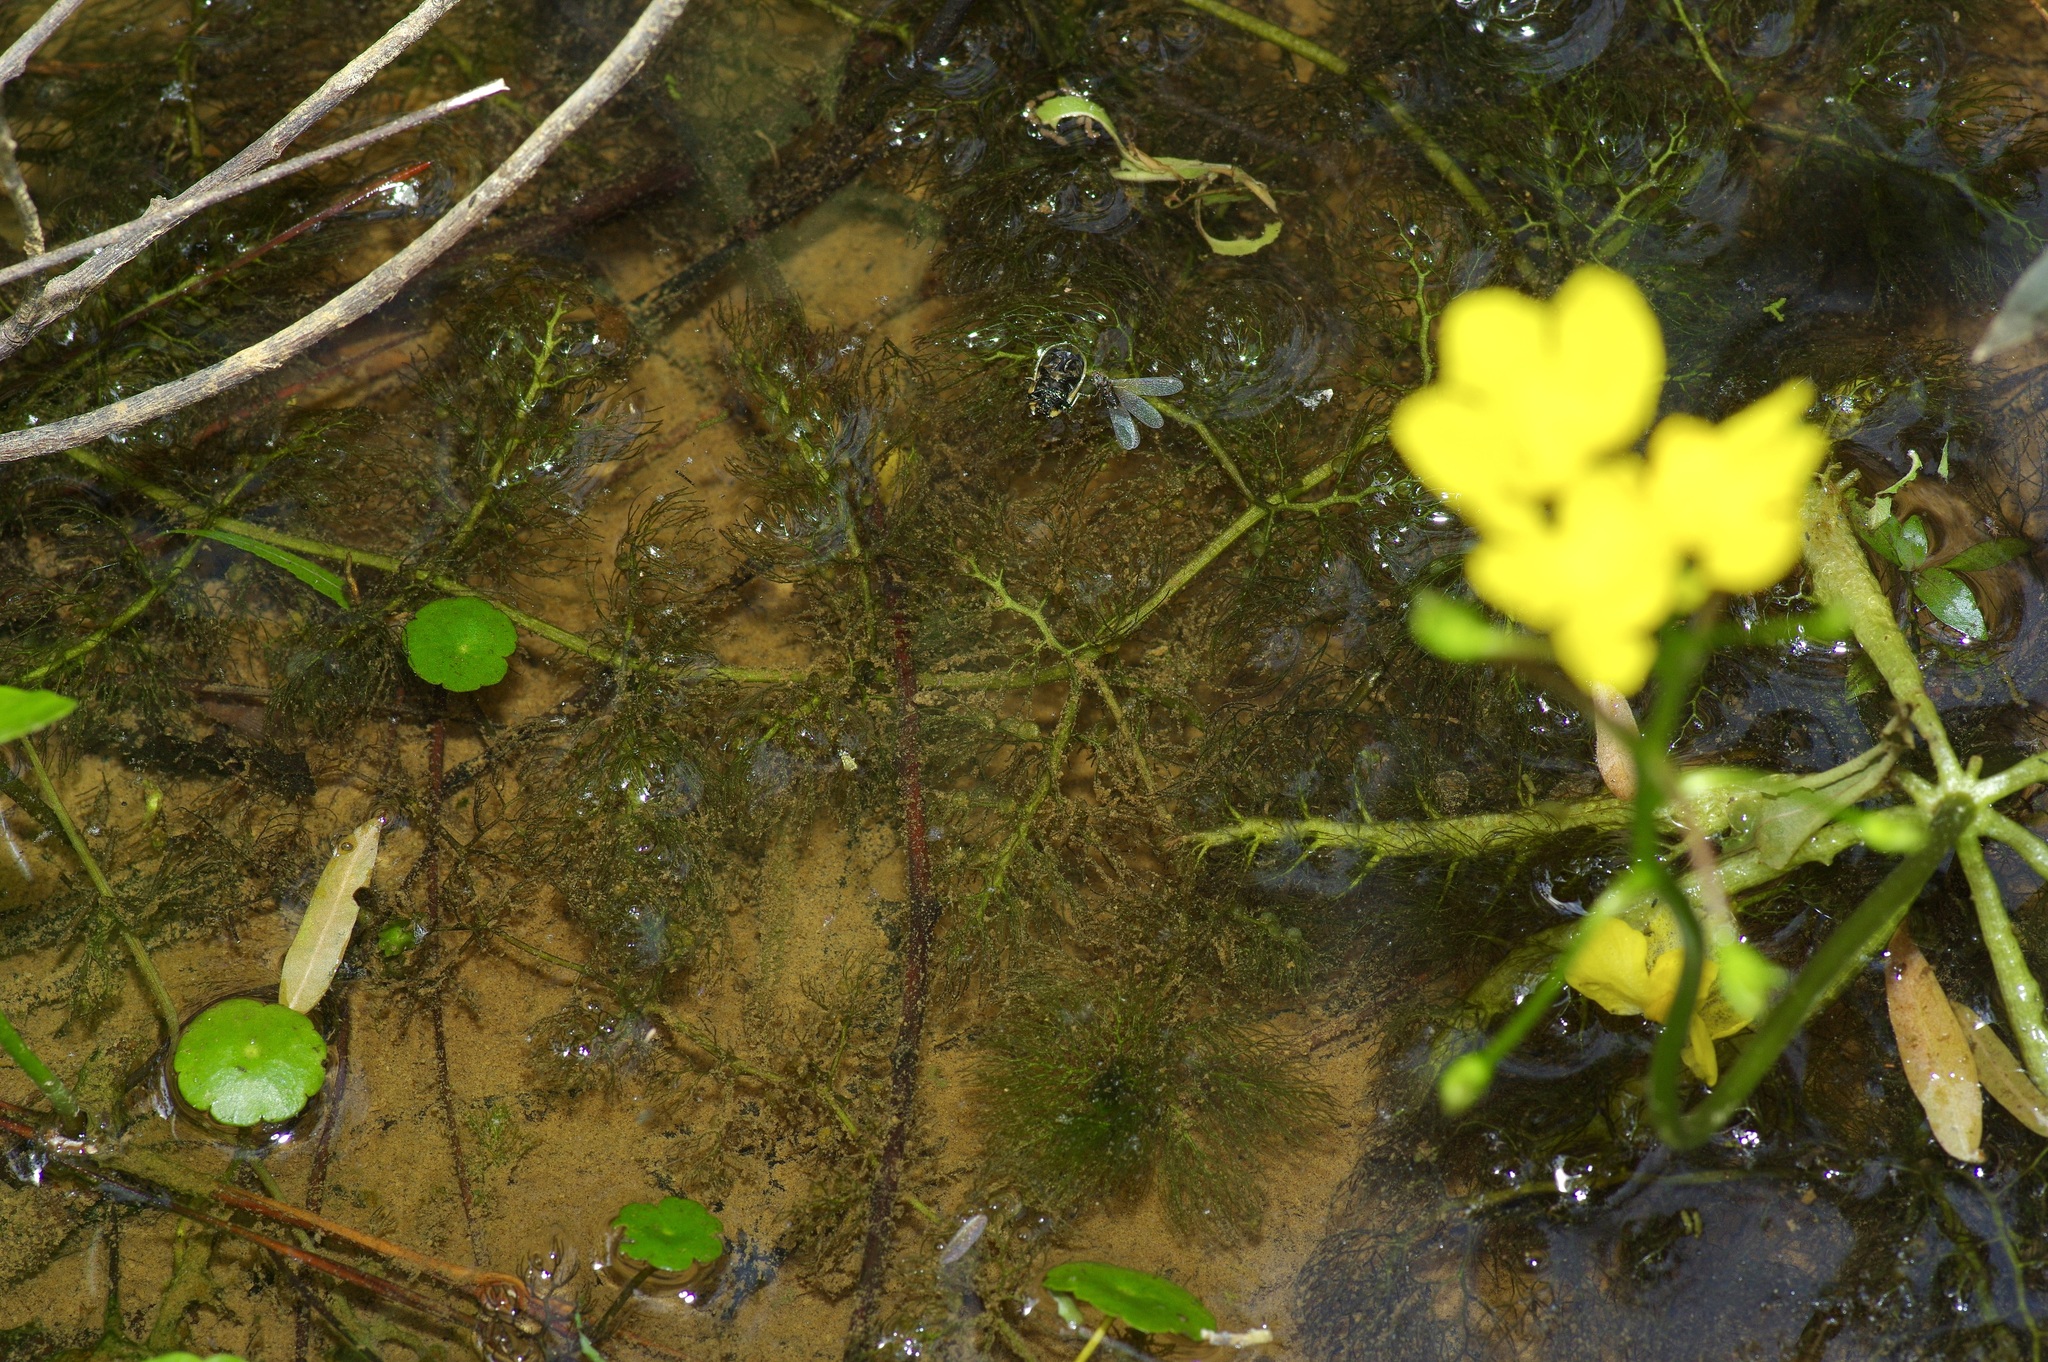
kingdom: Plantae
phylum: Tracheophyta
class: Magnoliopsida
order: Lamiales
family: Lentibulariaceae
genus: Utricularia
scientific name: Utricularia inflata
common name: Floating bladderwort
